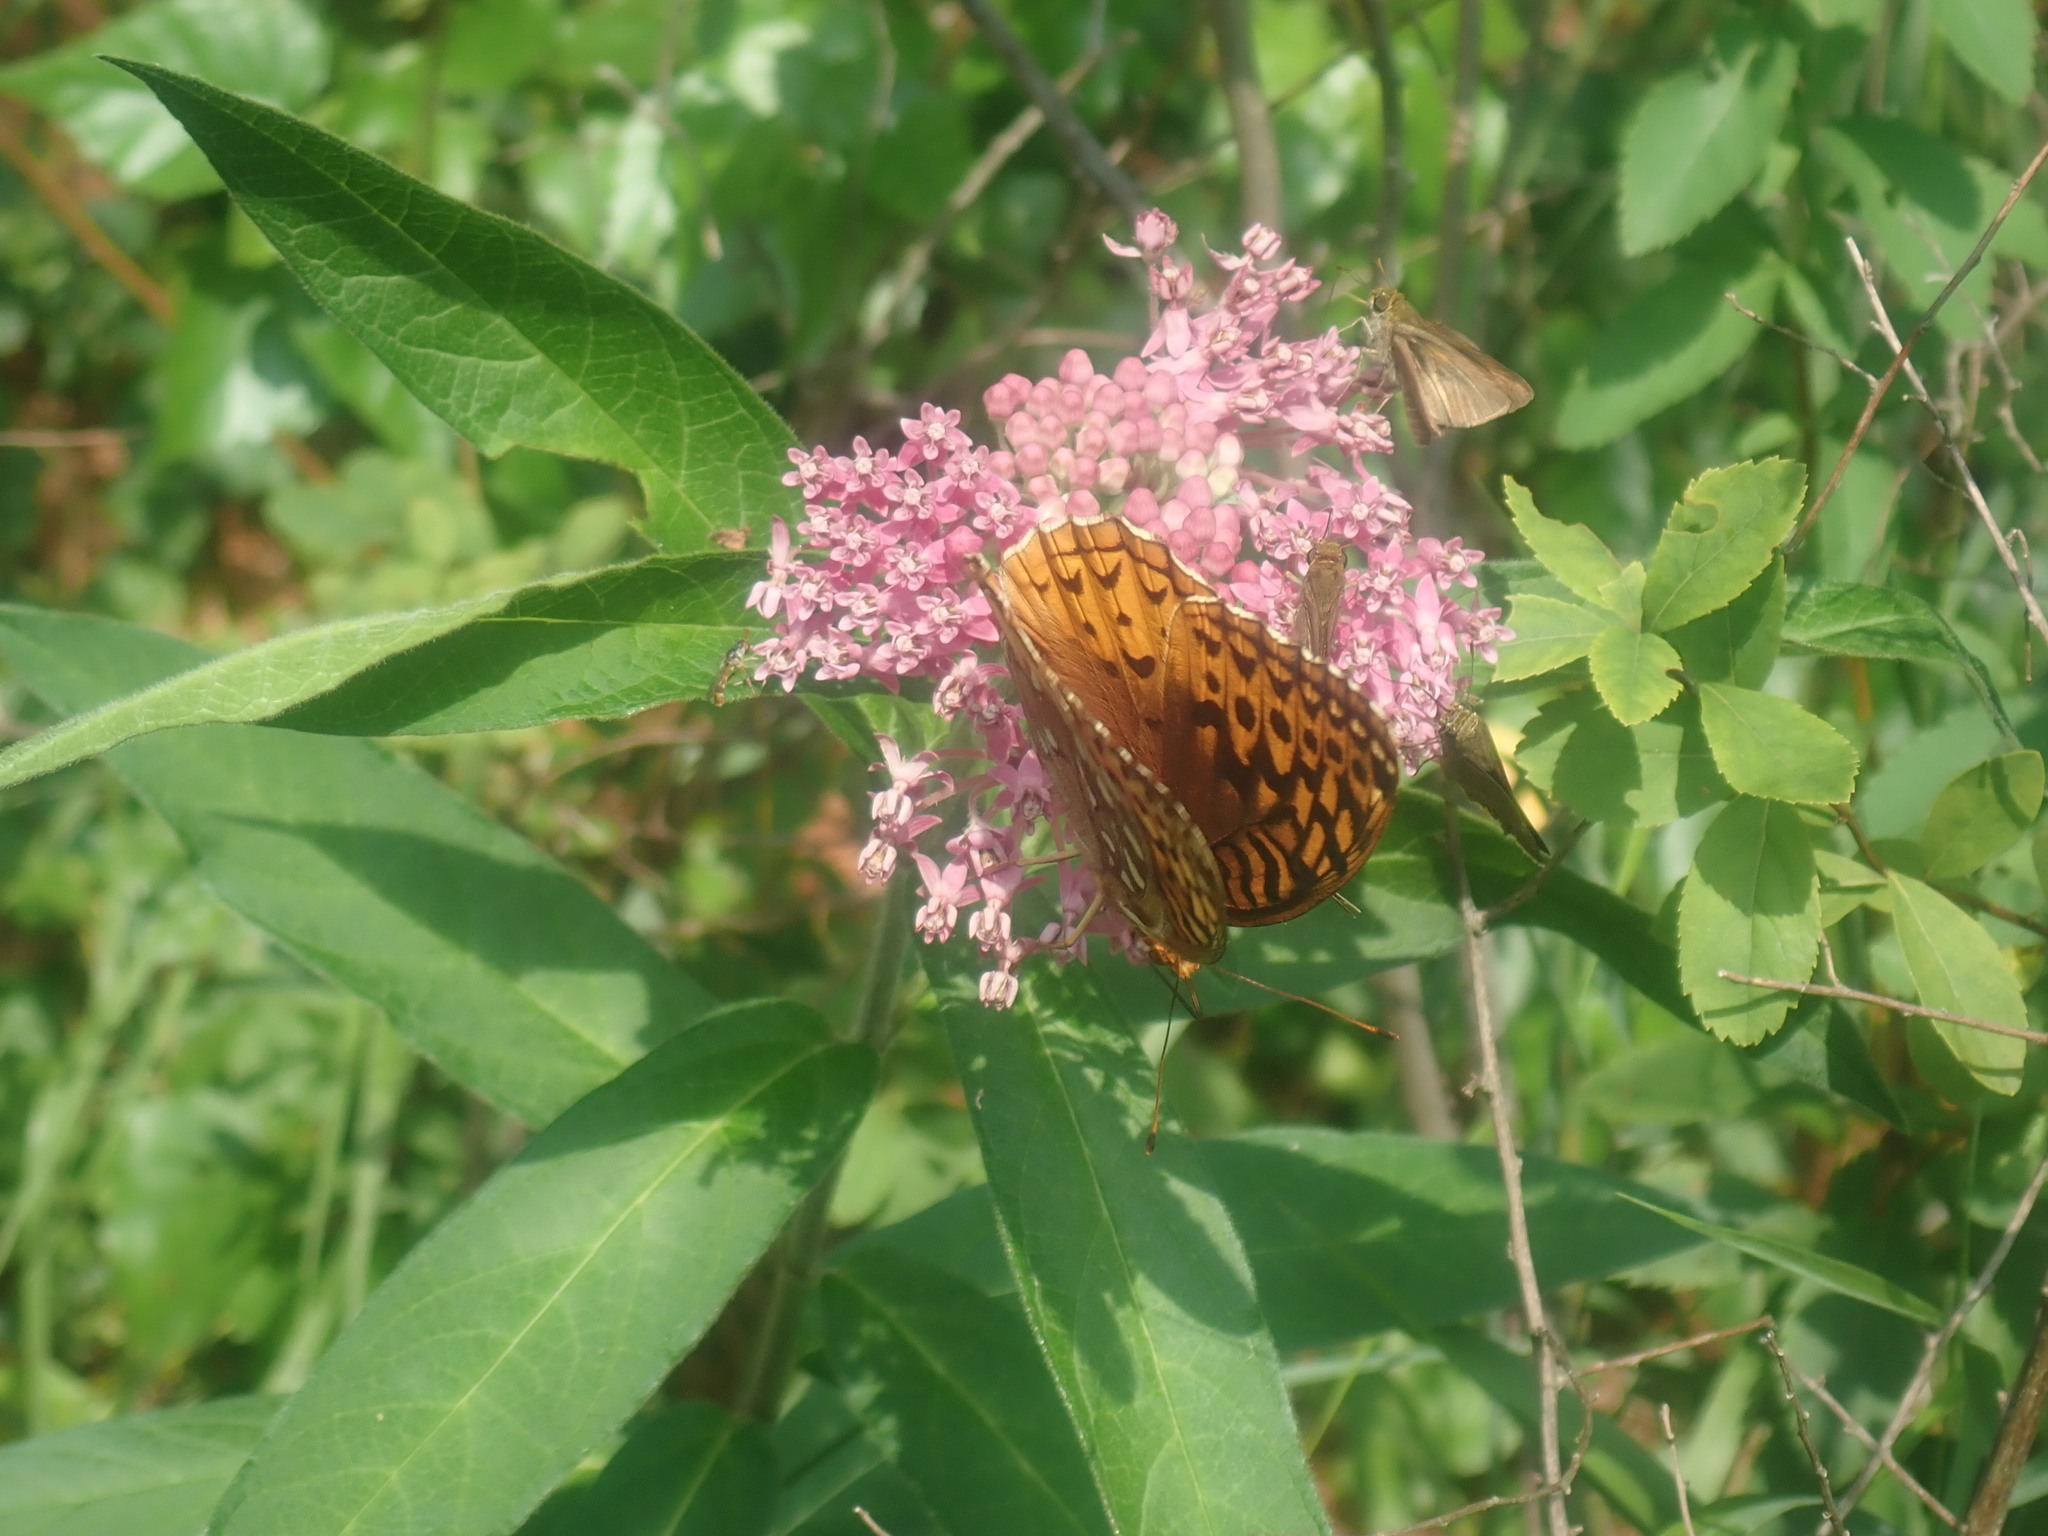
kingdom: Plantae
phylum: Tracheophyta
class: Magnoliopsida
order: Gentianales
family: Apocynaceae
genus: Asclepias
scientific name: Asclepias incarnata
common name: Swamp milkweed
